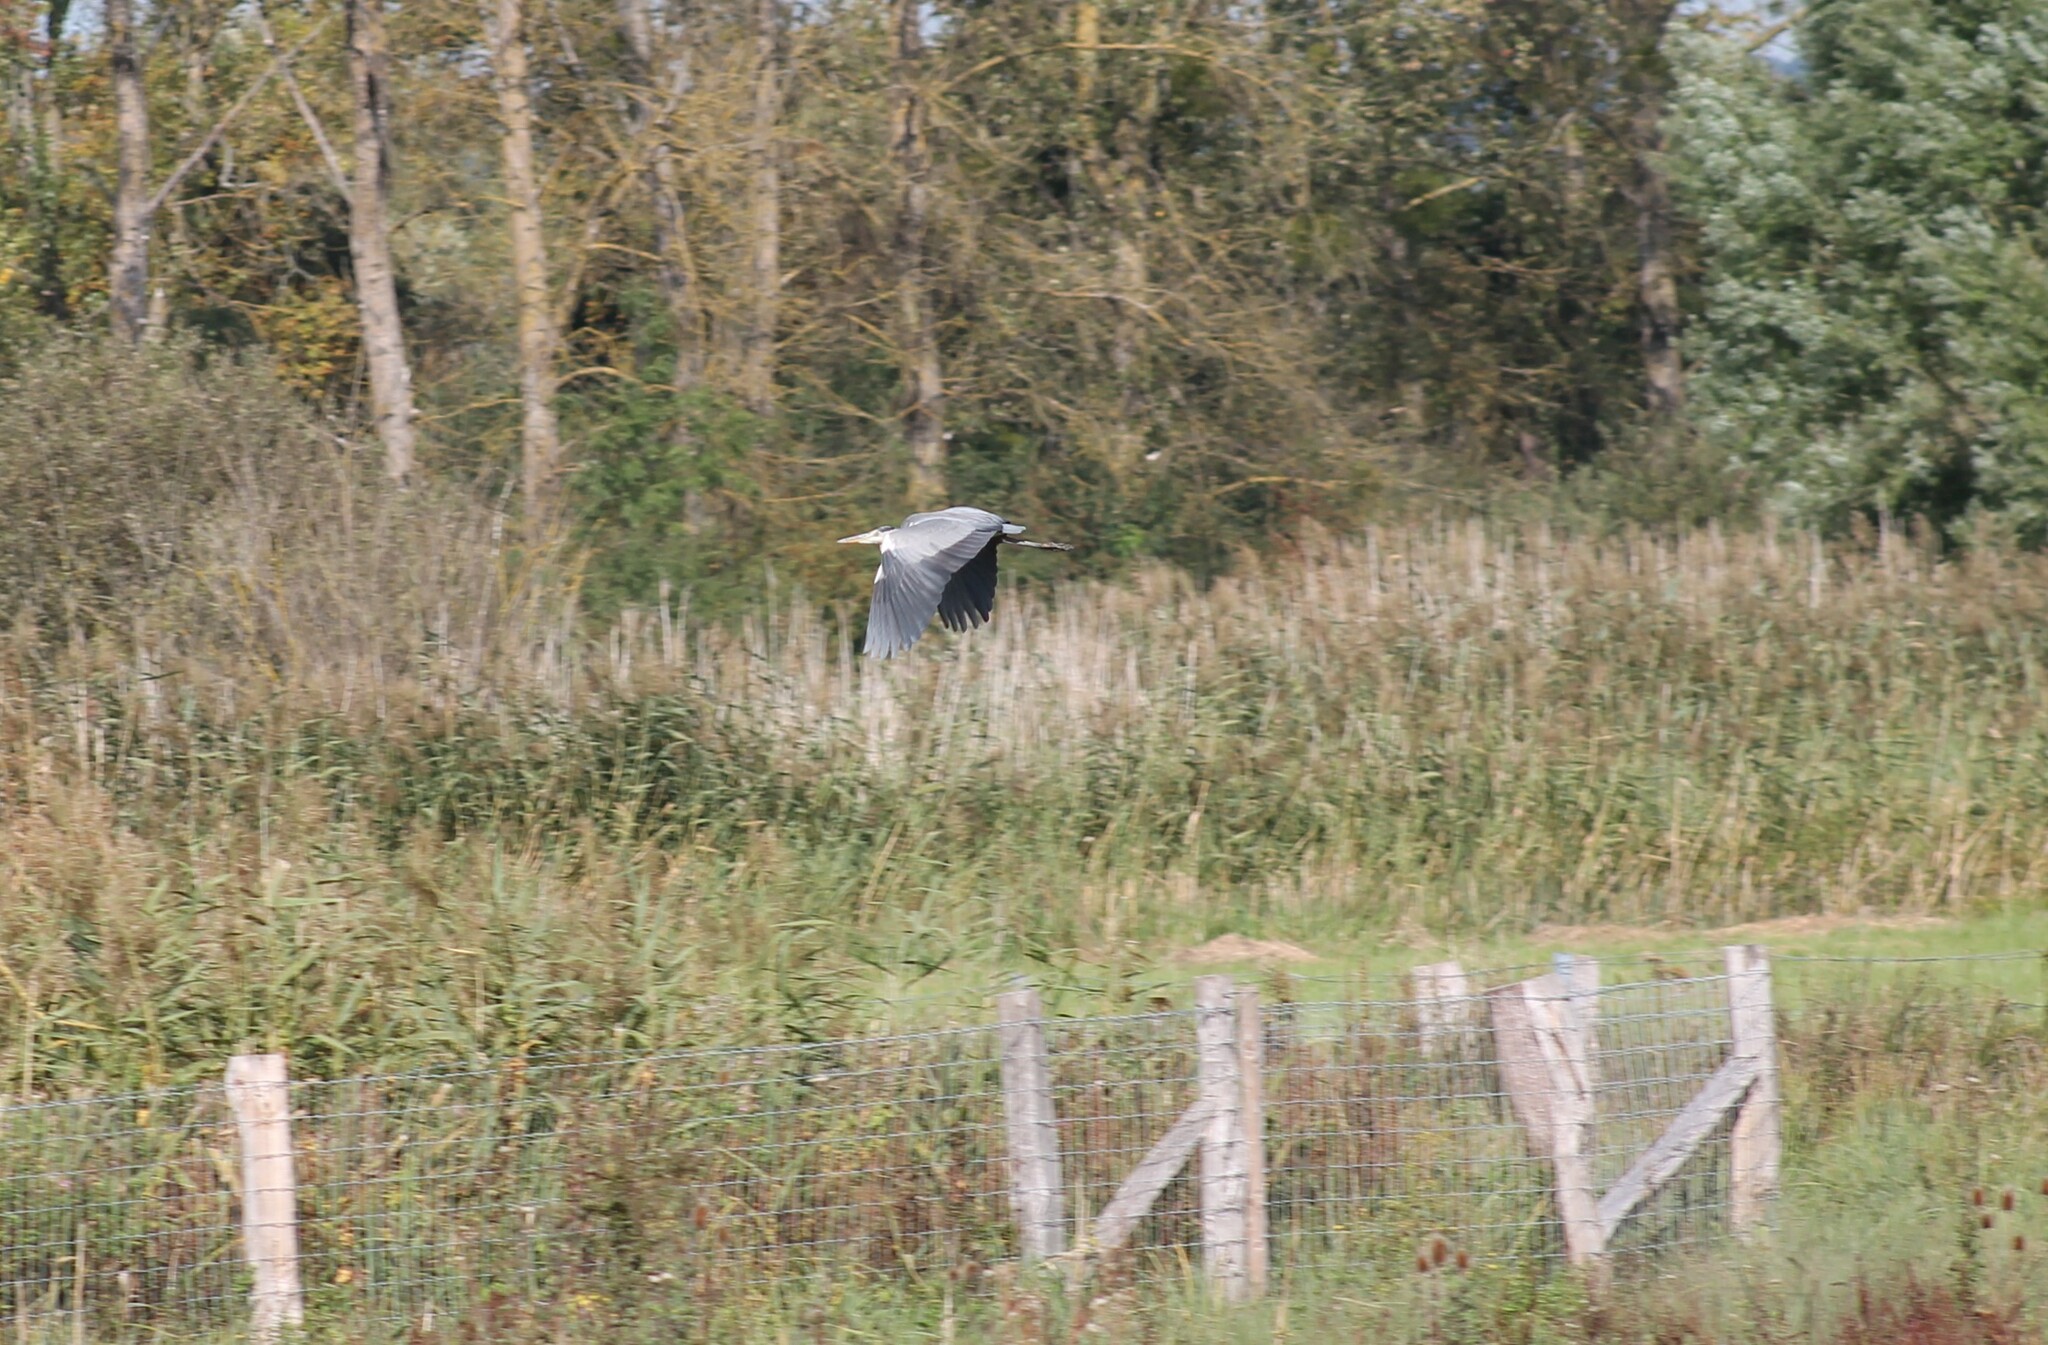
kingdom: Animalia
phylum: Chordata
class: Aves
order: Pelecaniformes
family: Ardeidae
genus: Ardea
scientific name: Ardea cinerea
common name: Grey heron
